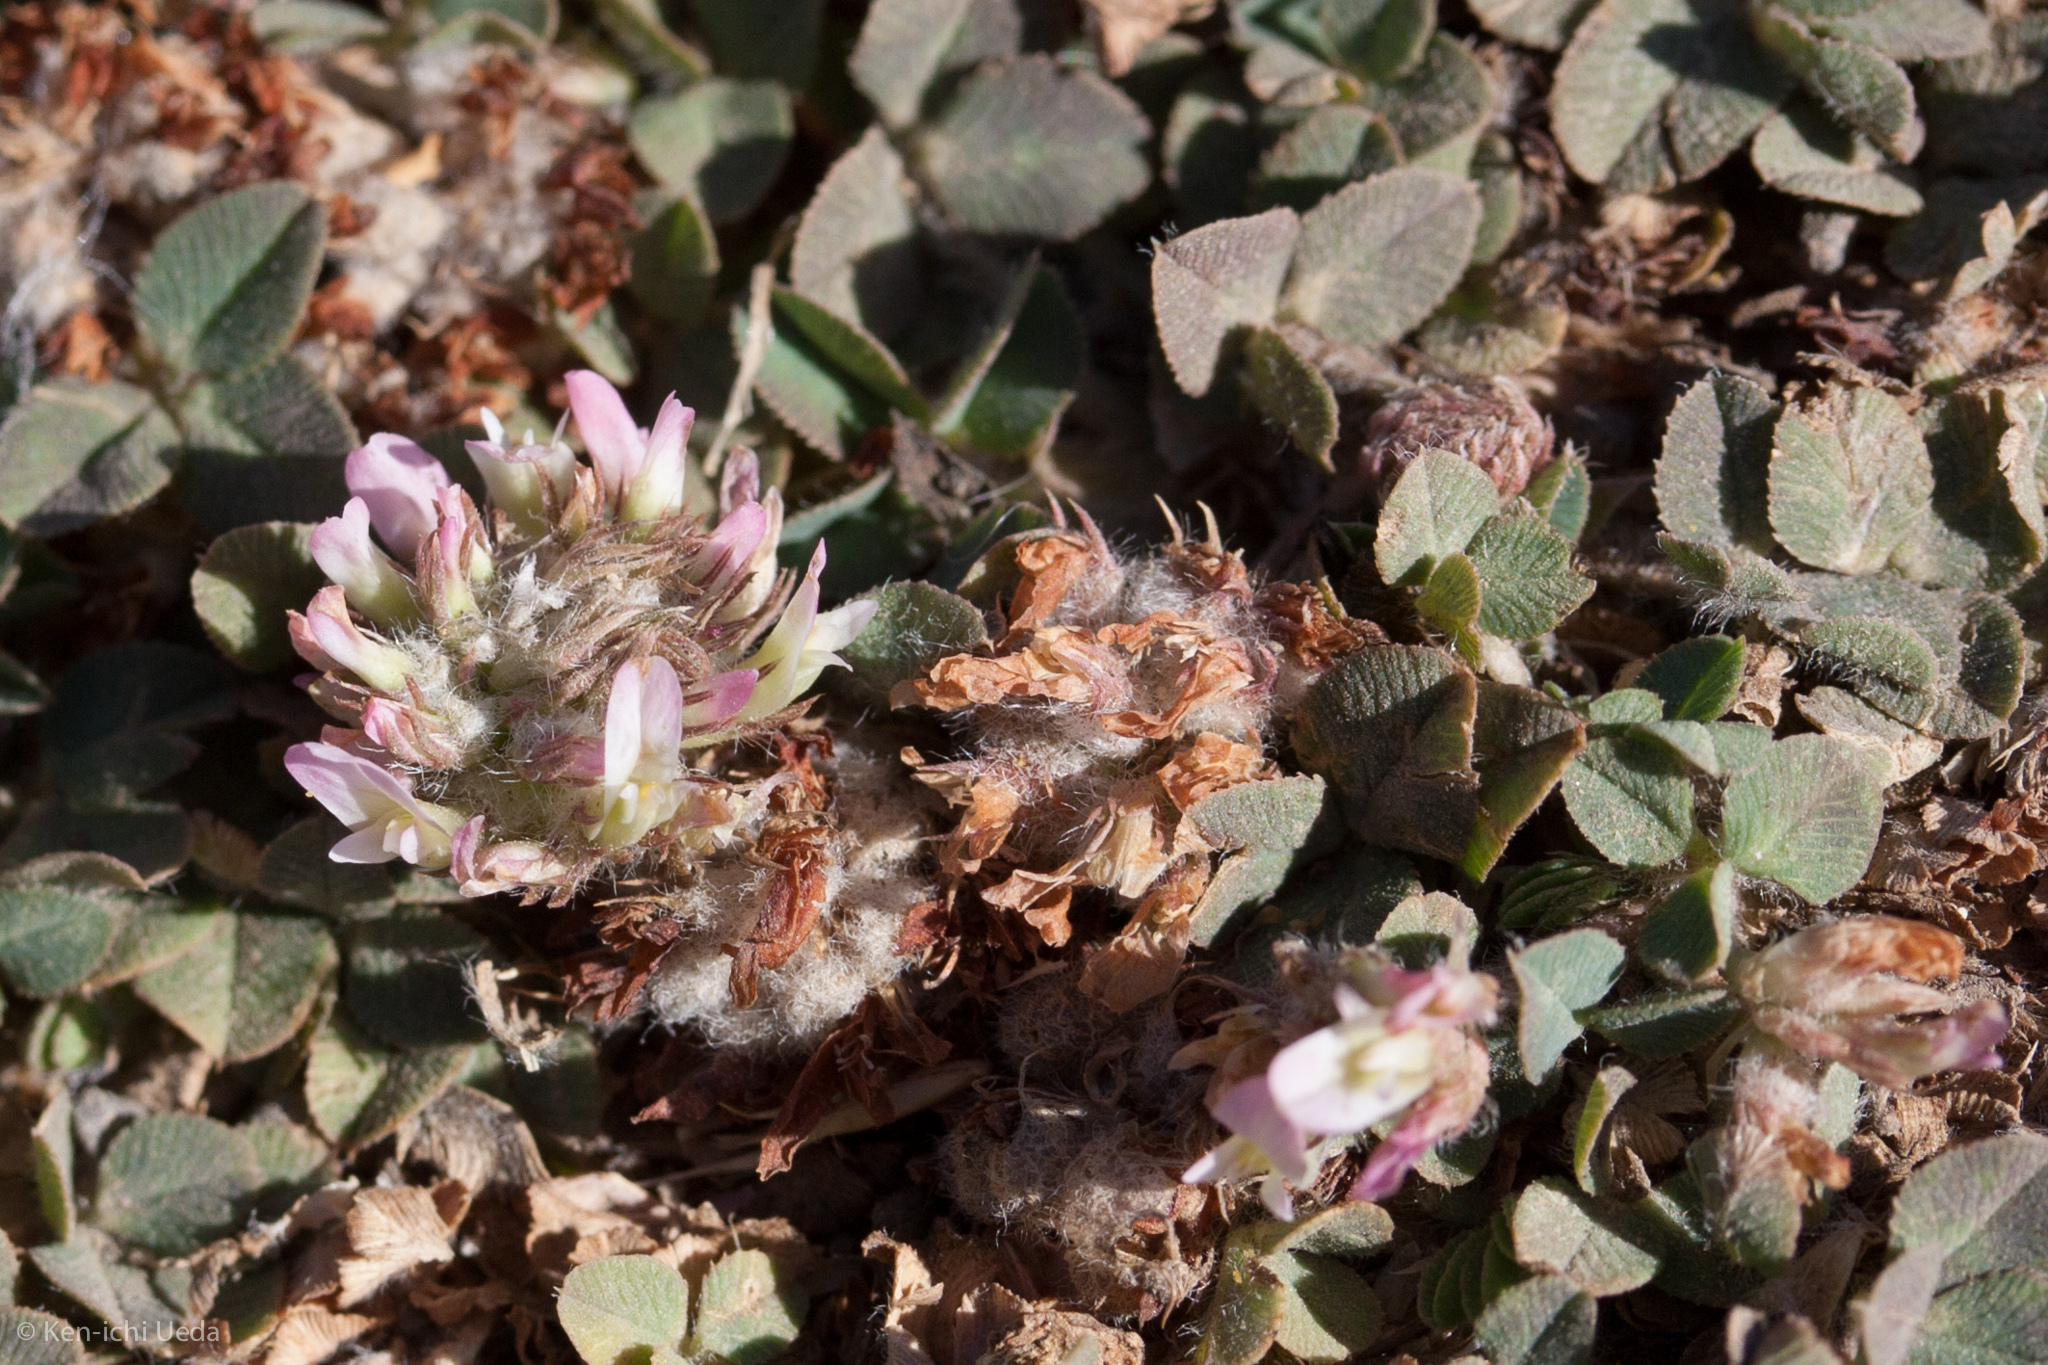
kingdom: Plantae
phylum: Tracheophyta
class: Magnoliopsida
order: Fabales
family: Fabaceae
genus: Trifolium
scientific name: Trifolium fragiferum
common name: Strawberry clover
